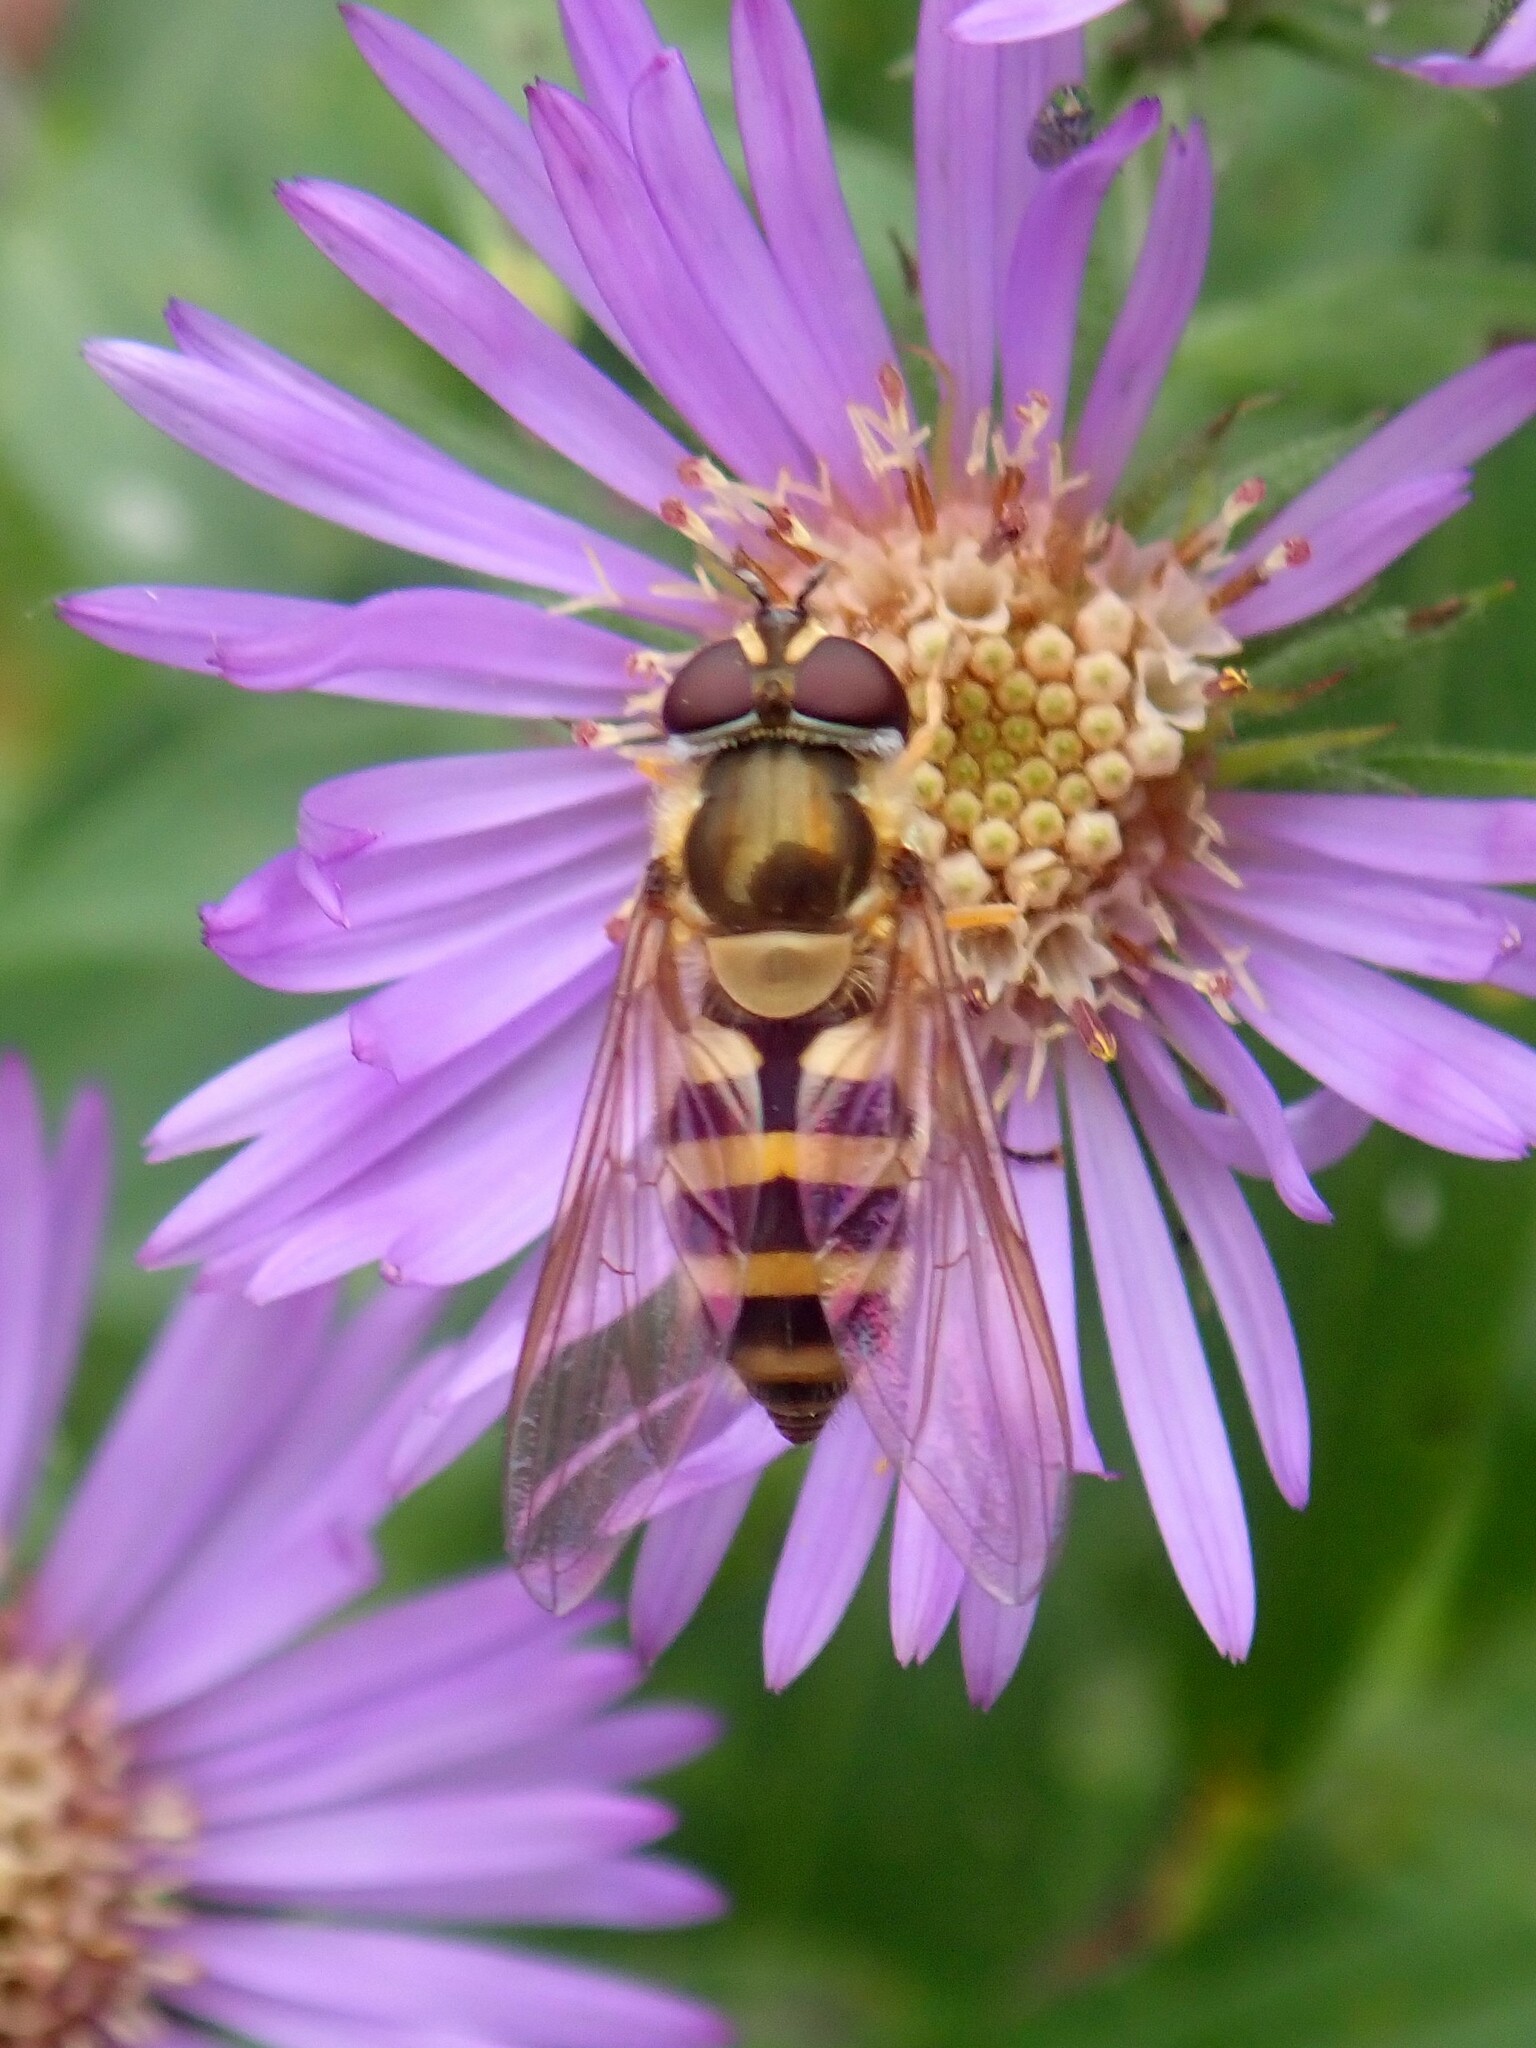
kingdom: Animalia
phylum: Arthropoda
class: Insecta
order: Diptera
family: Syrphidae
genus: Epistrophe
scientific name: Epistrophe grossulariae
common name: Black-horned smoothtail
